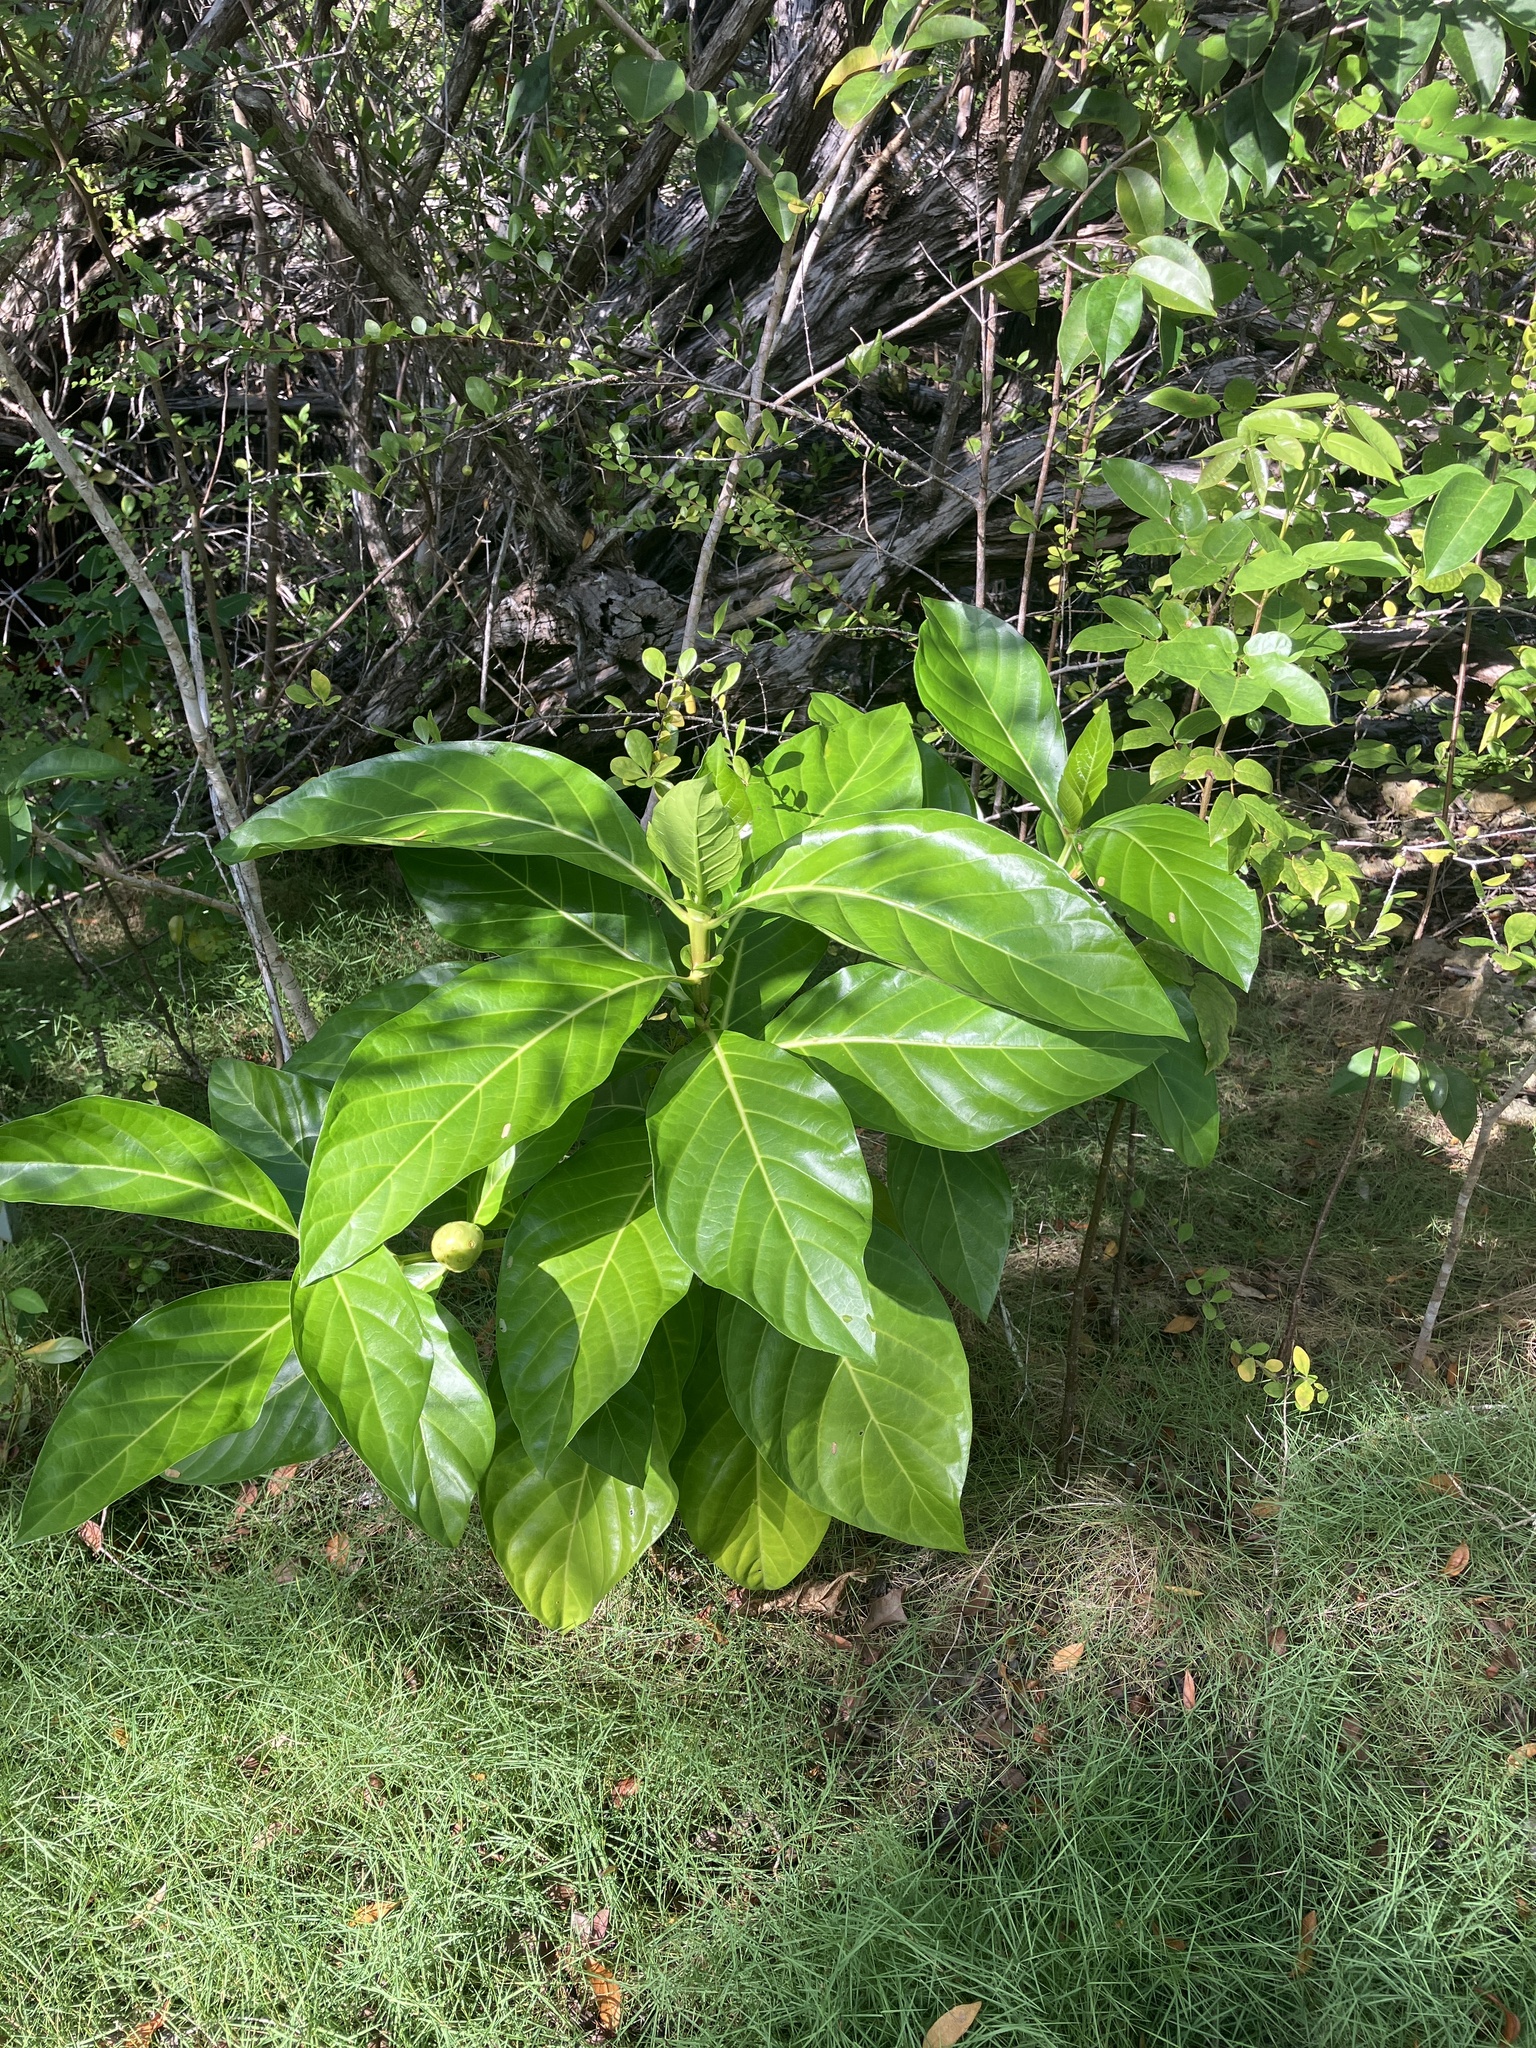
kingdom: Plantae
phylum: Tracheophyta
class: Magnoliopsida
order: Gentianales
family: Rubiaceae
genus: Morinda
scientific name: Morinda citrifolia
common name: Indian-mulberry
